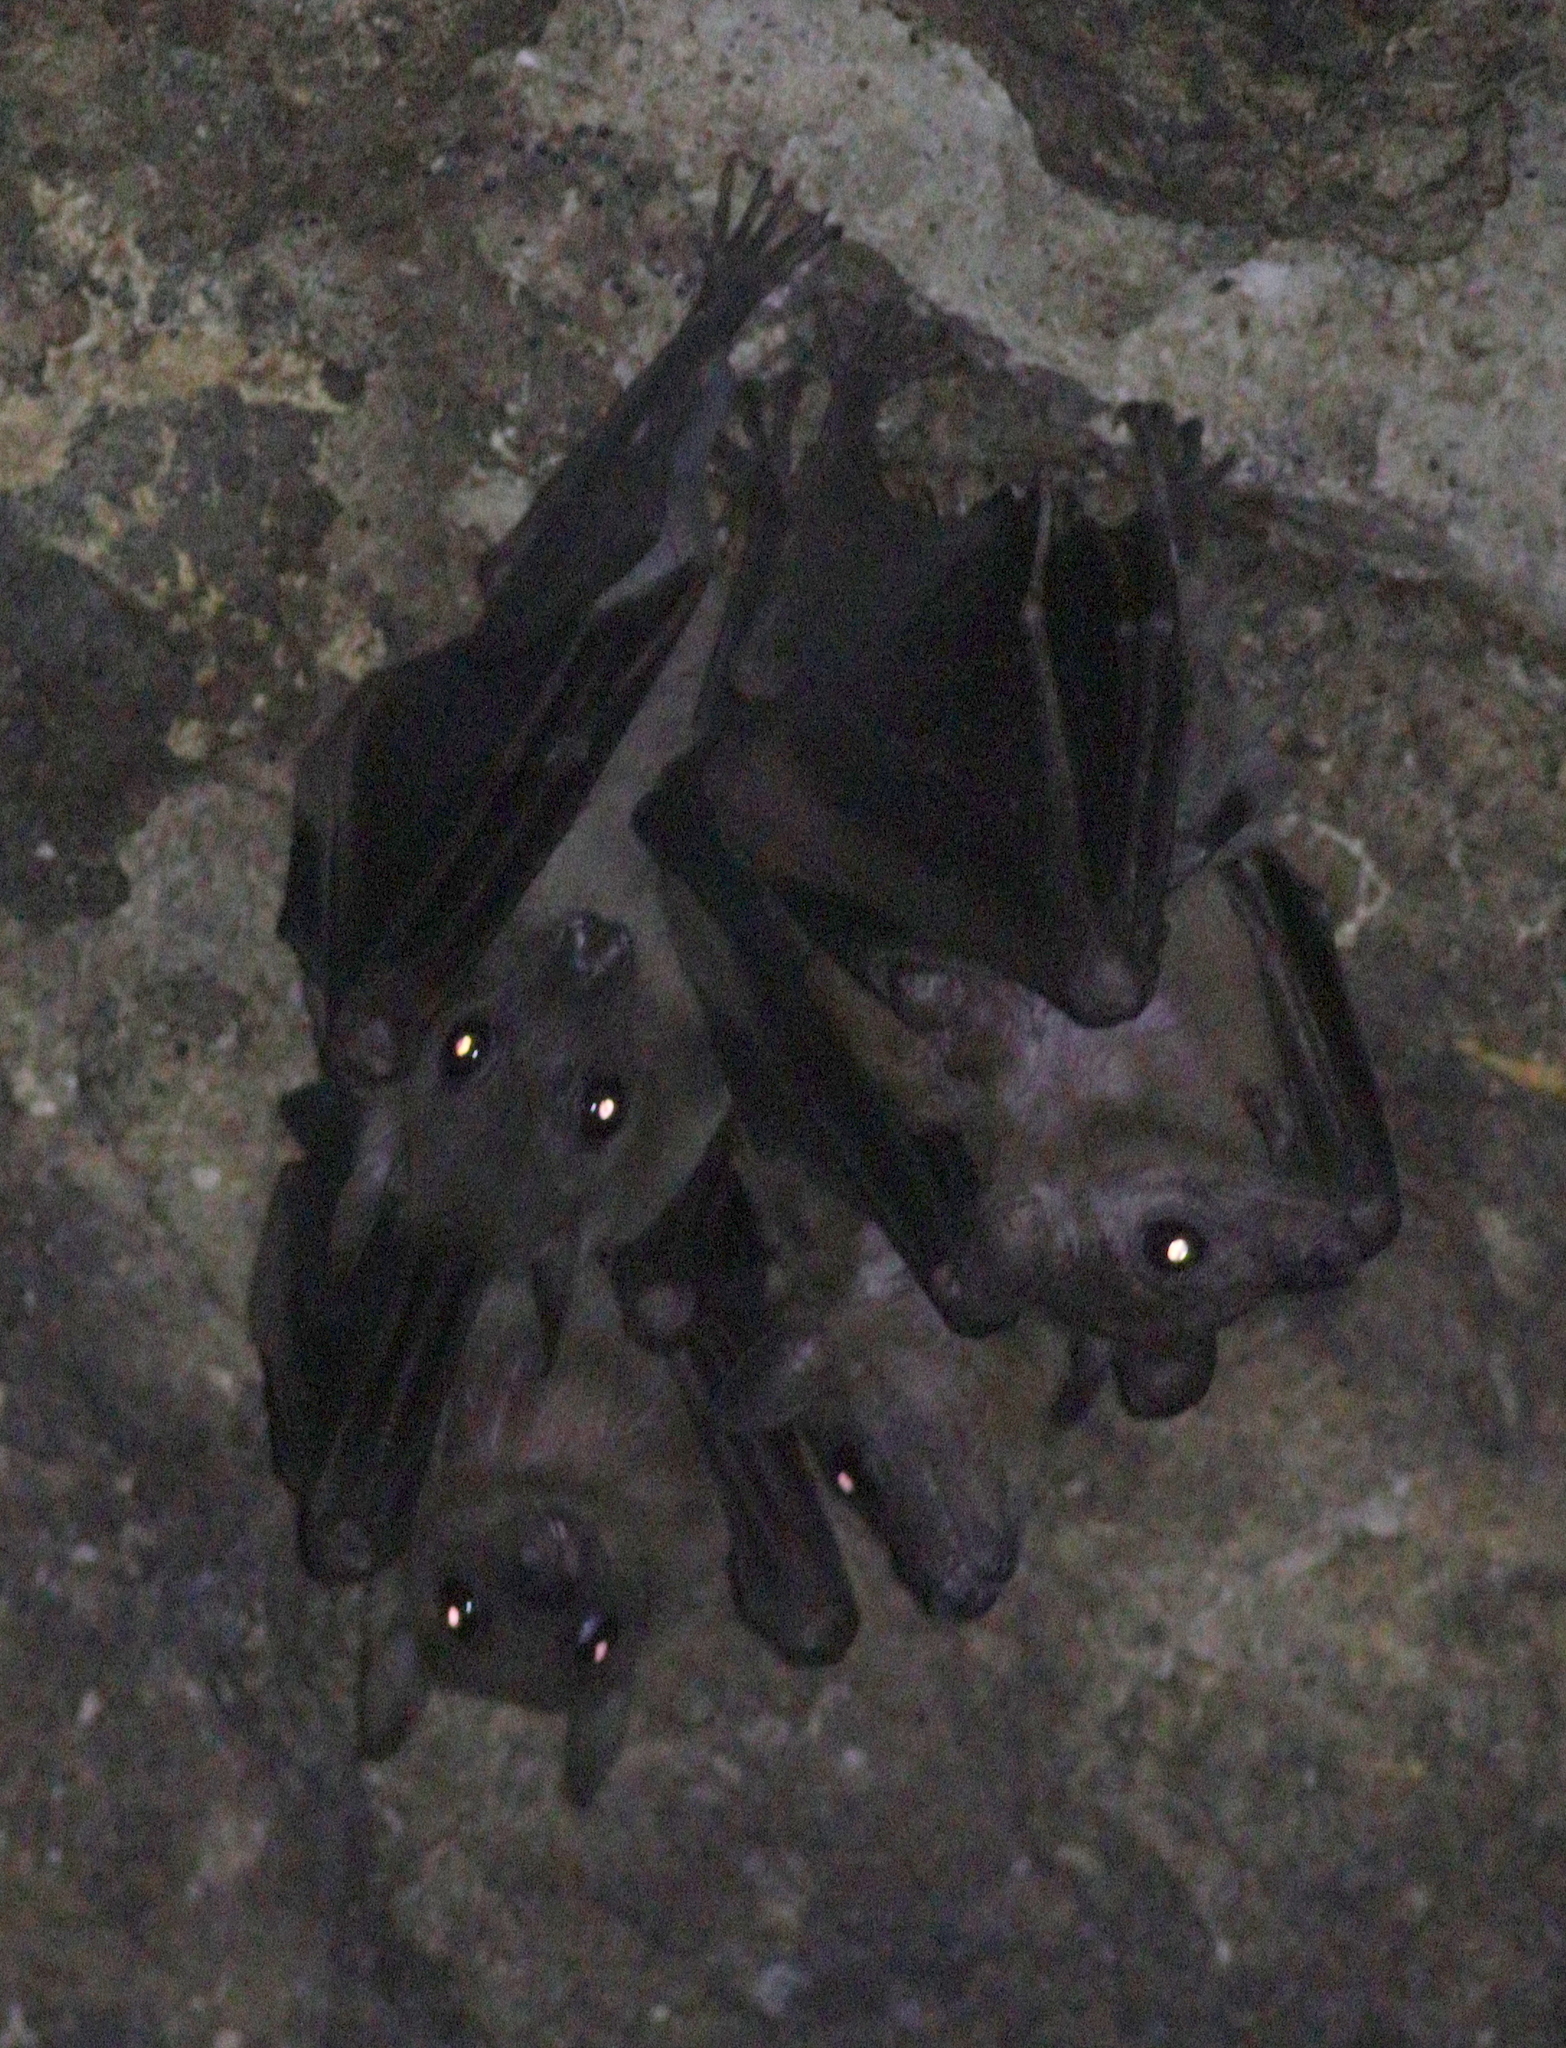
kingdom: Animalia
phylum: Chordata
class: Mammalia
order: Chiroptera
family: Pteropodidae
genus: Rousettus
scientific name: Rousettus aegyptiacus
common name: Egyptian rousette
